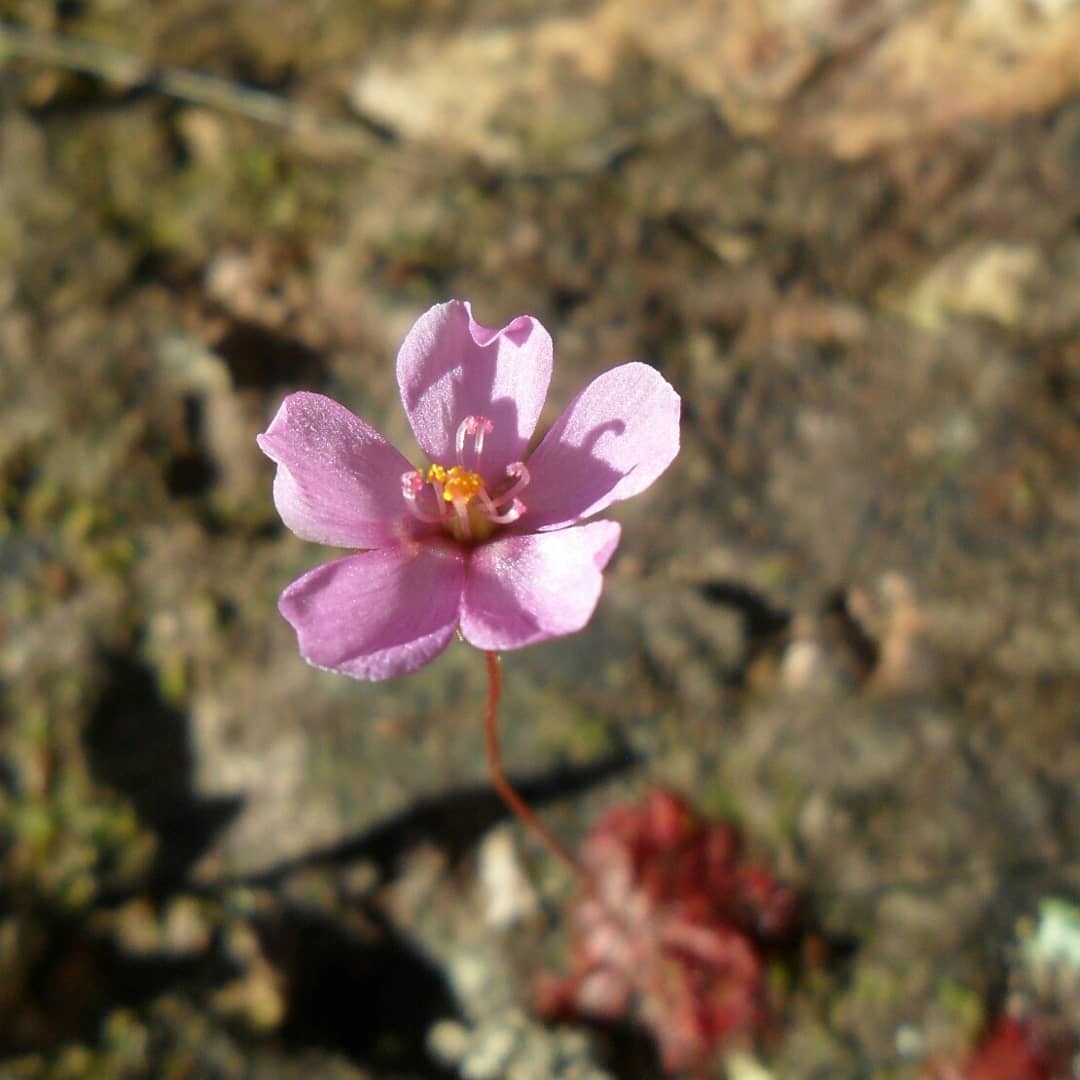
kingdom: Plantae
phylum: Tracheophyta
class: Magnoliopsida
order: Caryophyllales
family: Droseraceae
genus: Drosera
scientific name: Drosera montana
